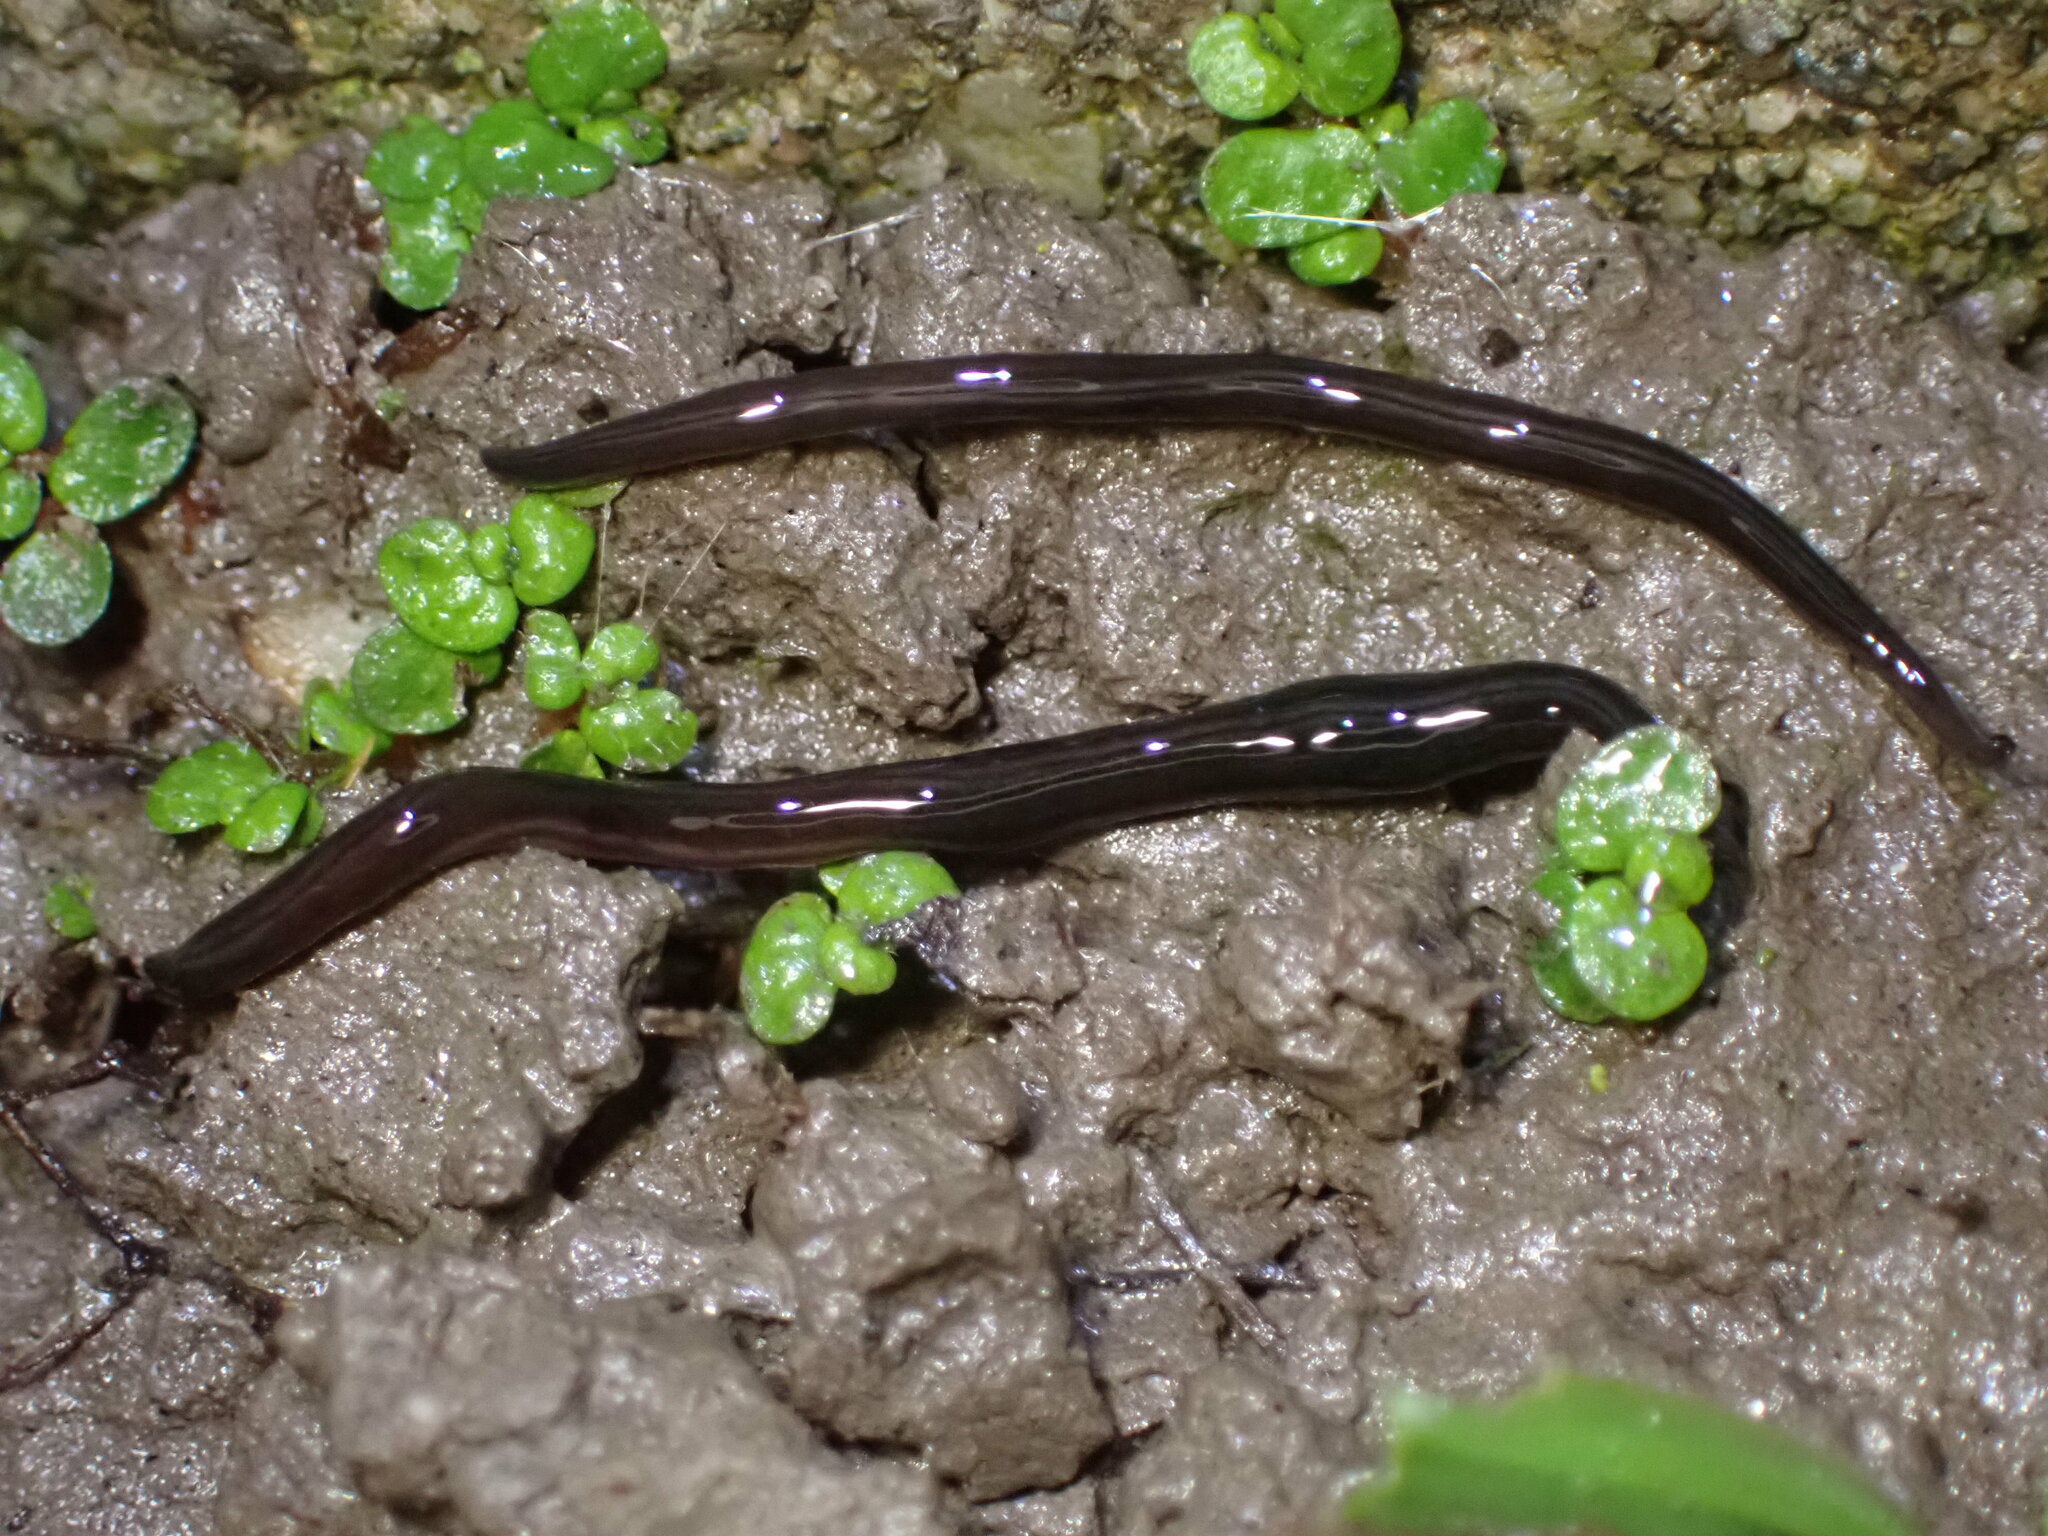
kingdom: Animalia
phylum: Platyhelminthes
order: Tricladida
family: Geoplanidae
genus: Parakontikia
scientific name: Parakontikia ventrolineata
